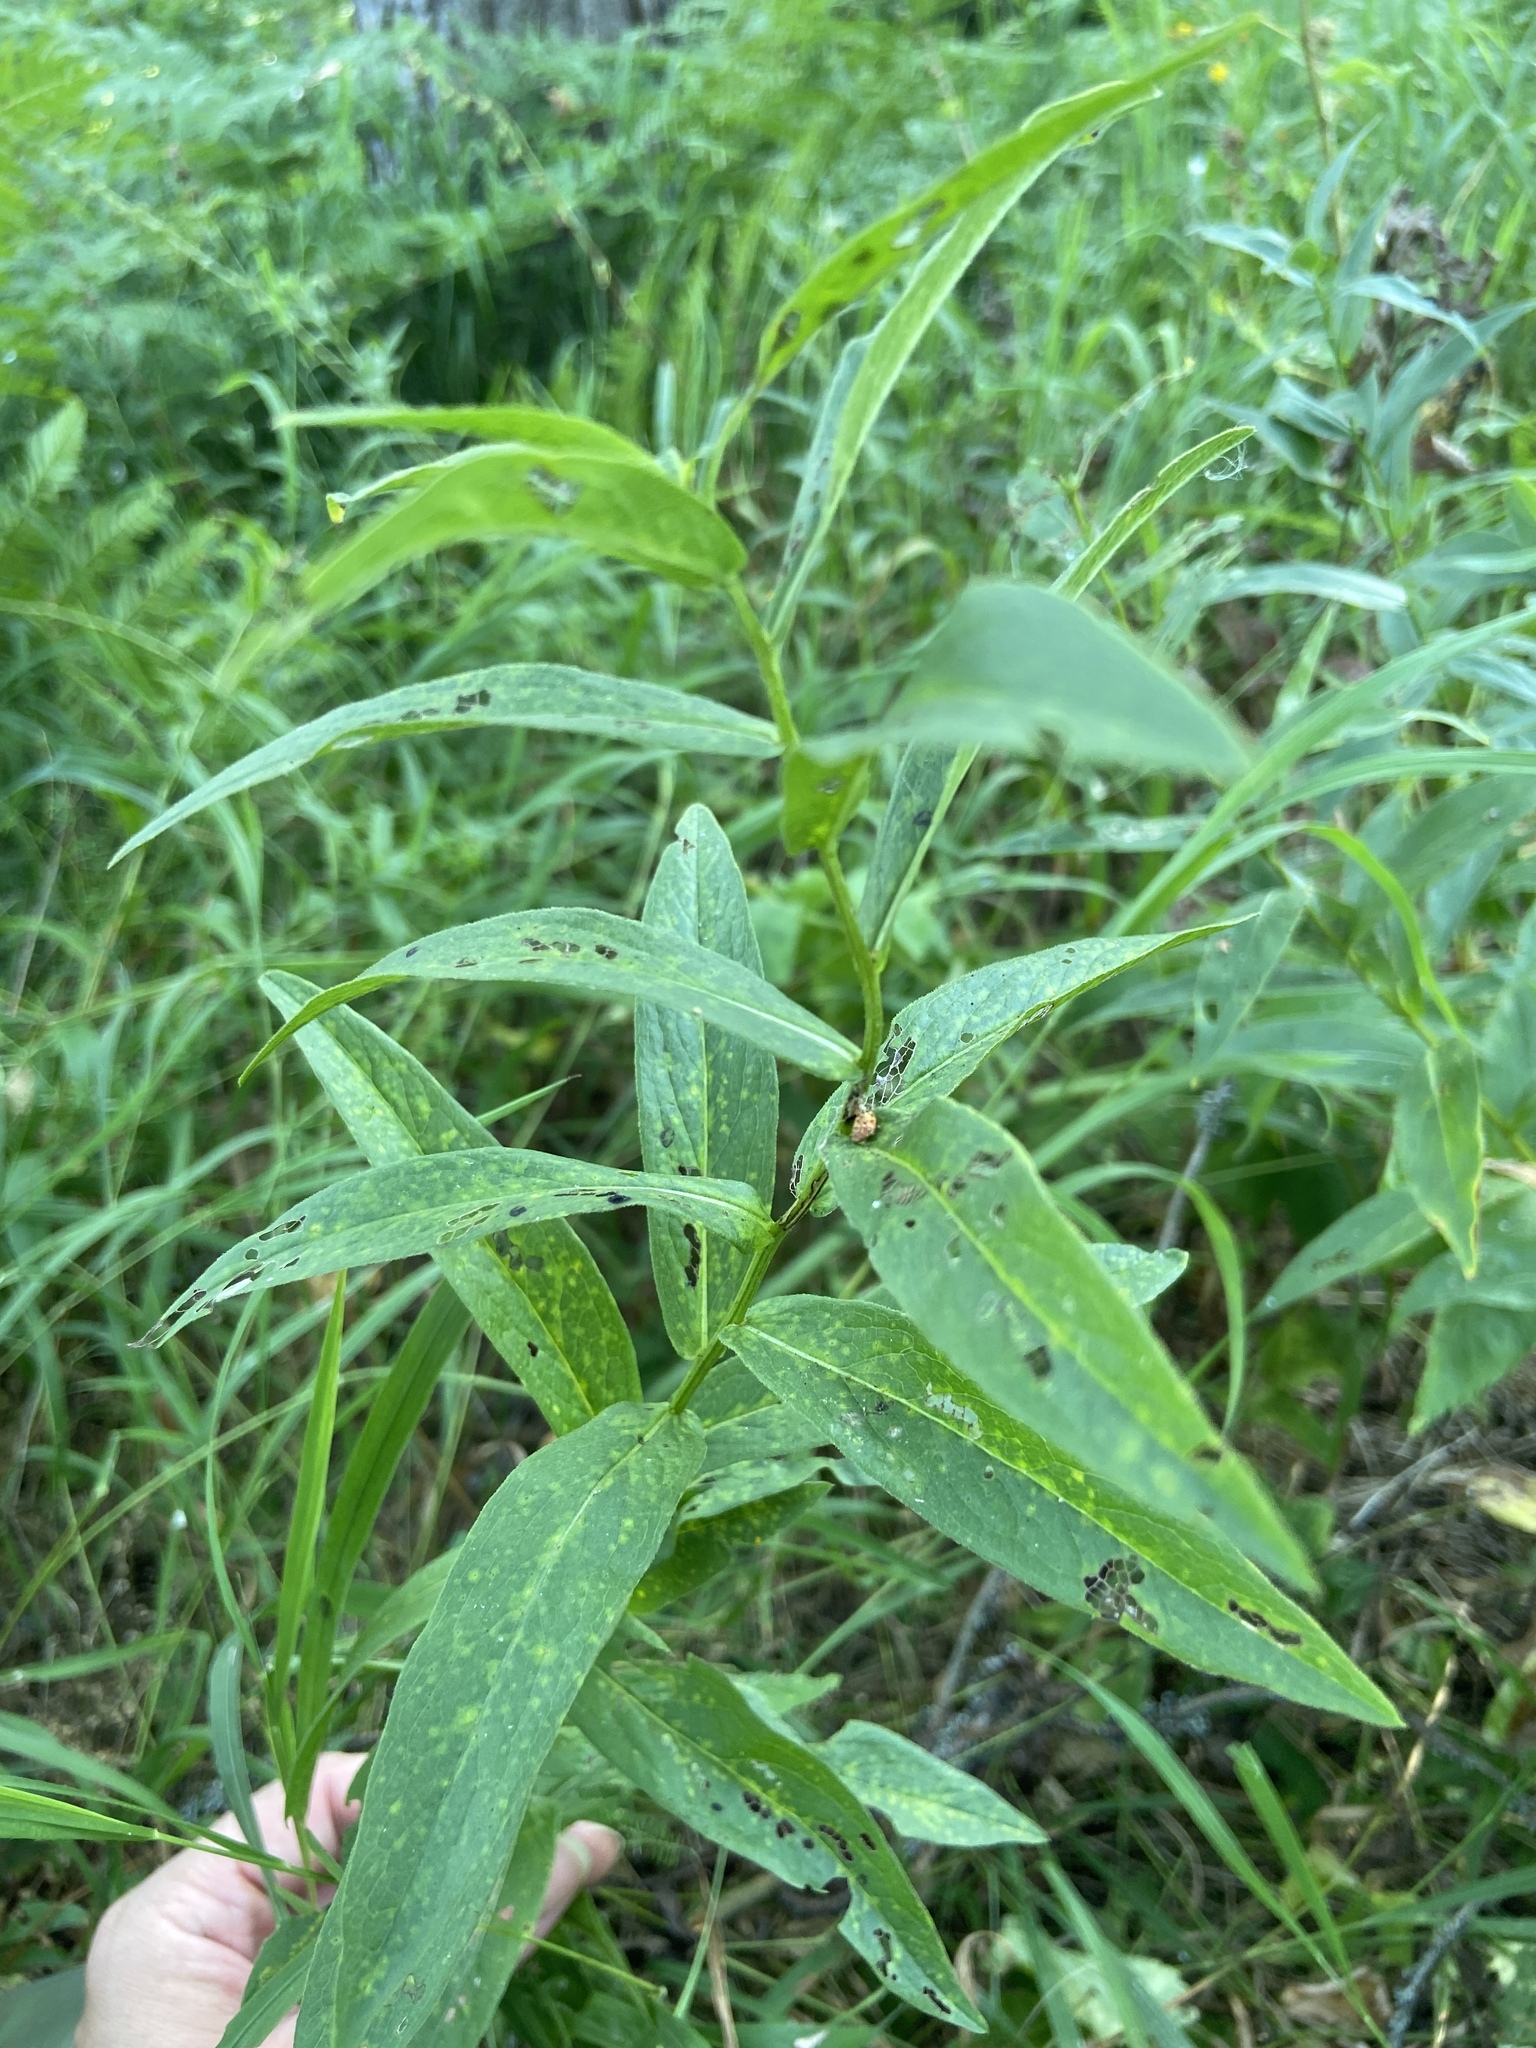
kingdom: Plantae
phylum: Tracheophyta
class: Magnoliopsida
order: Asterales
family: Asteraceae
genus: Pentanema
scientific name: Pentanema salicinum
